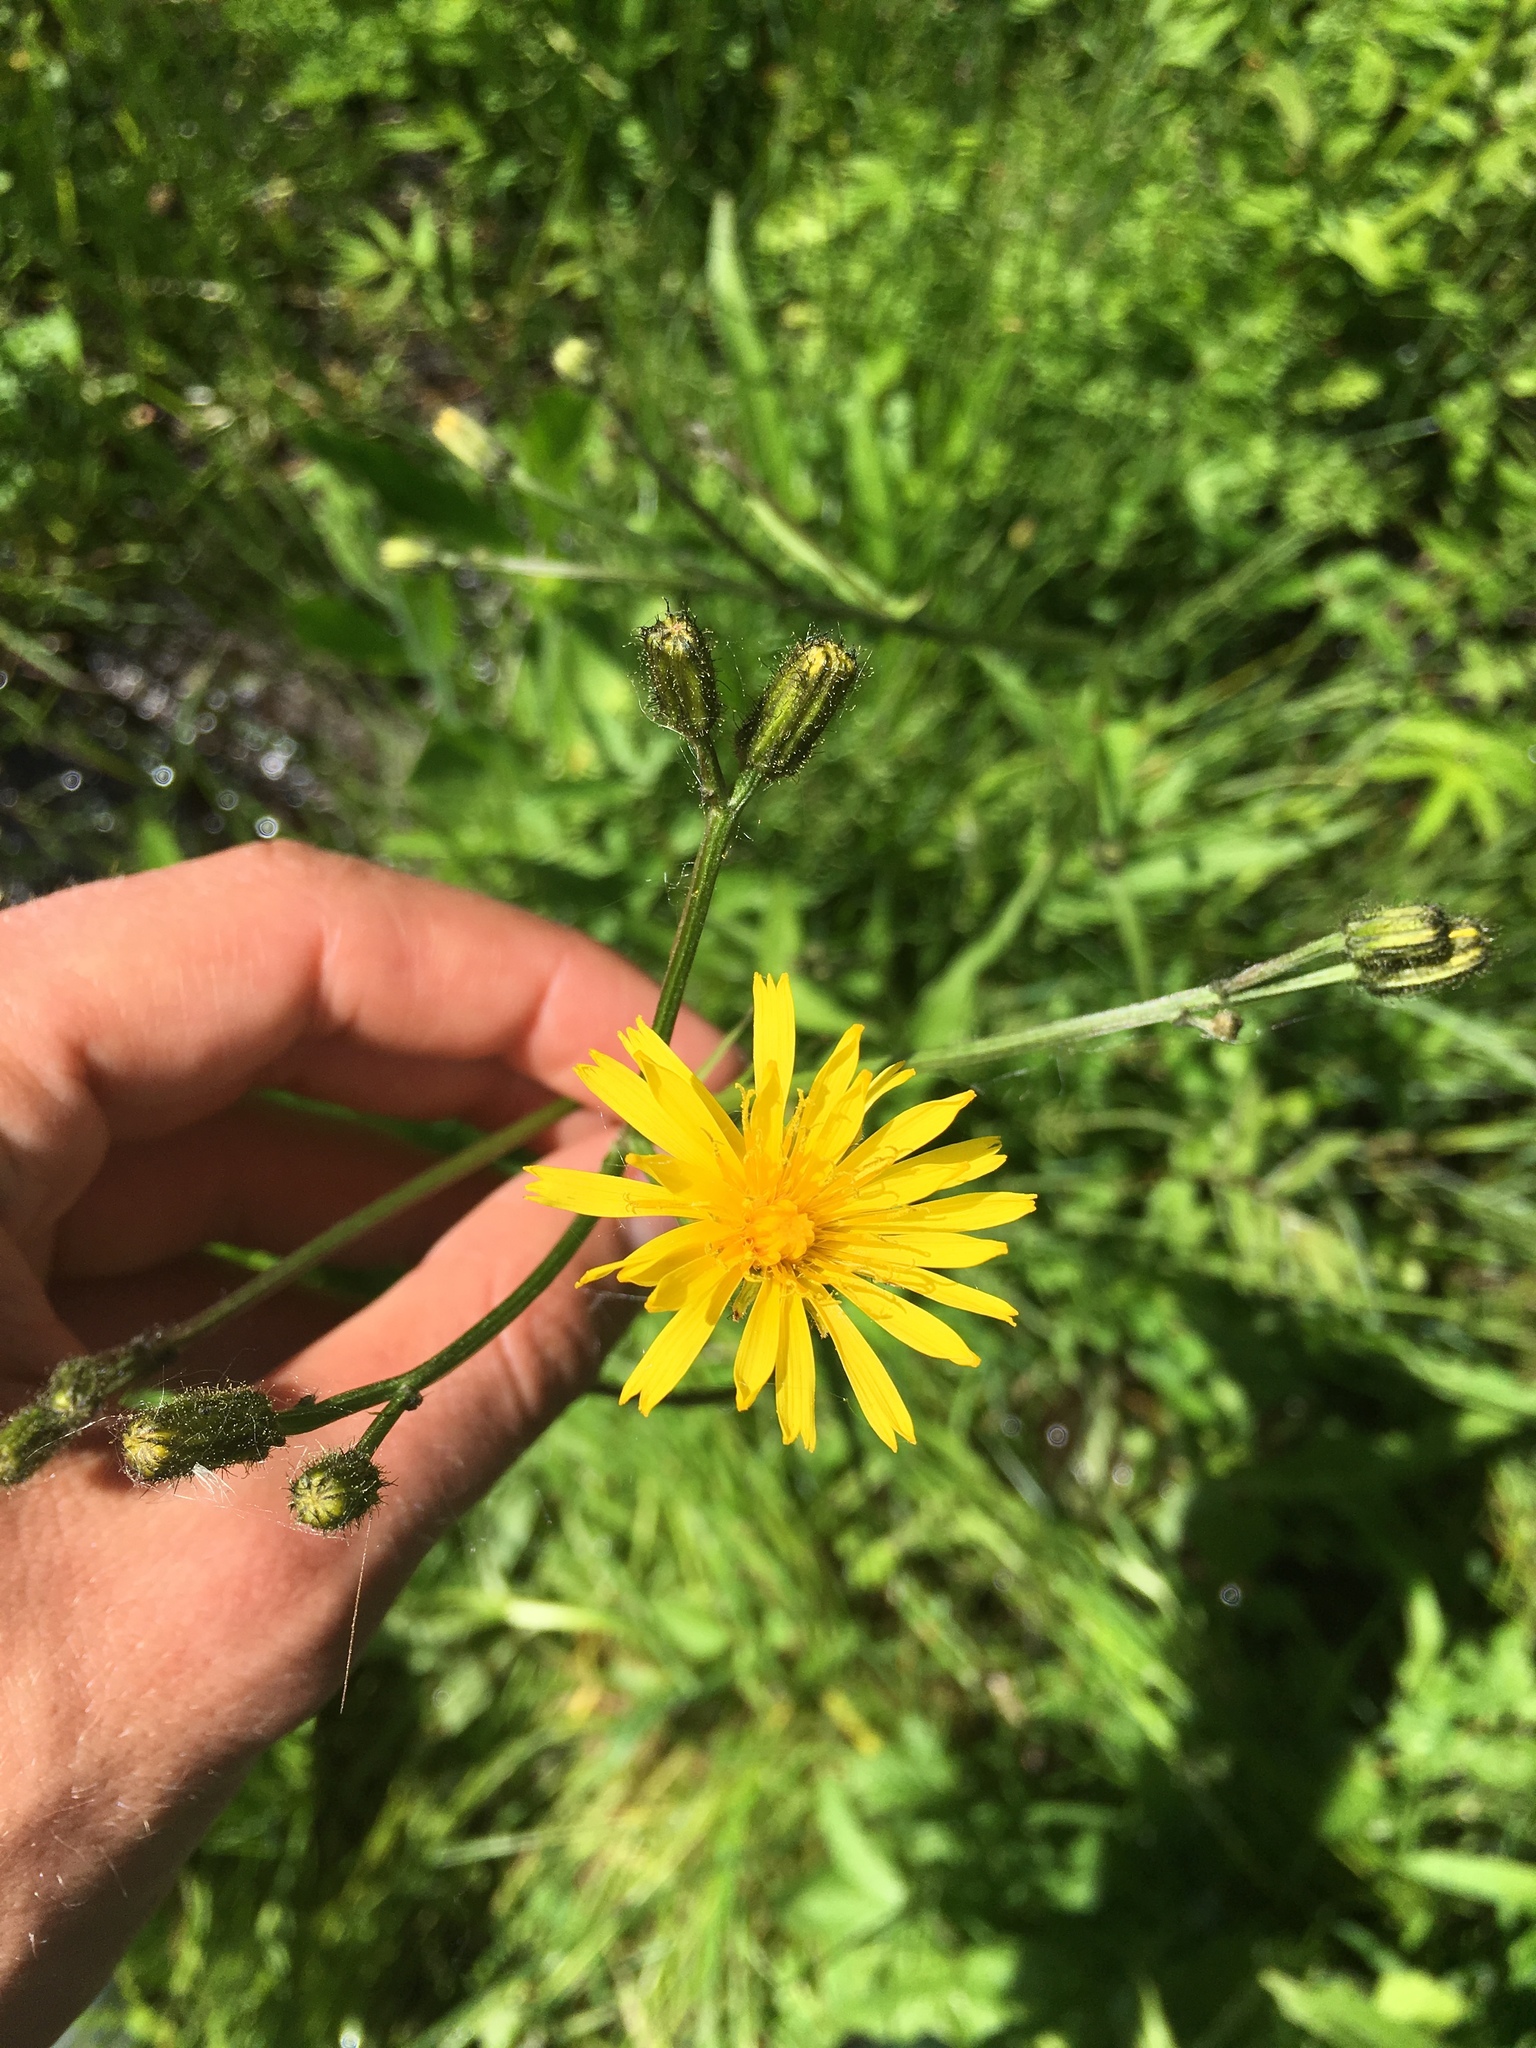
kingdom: Plantae
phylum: Tracheophyta
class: Magnoliopsida
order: Asterales
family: Asteraceae
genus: Crepis
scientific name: Crepis paludosa
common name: Marsh hawk's-beard
